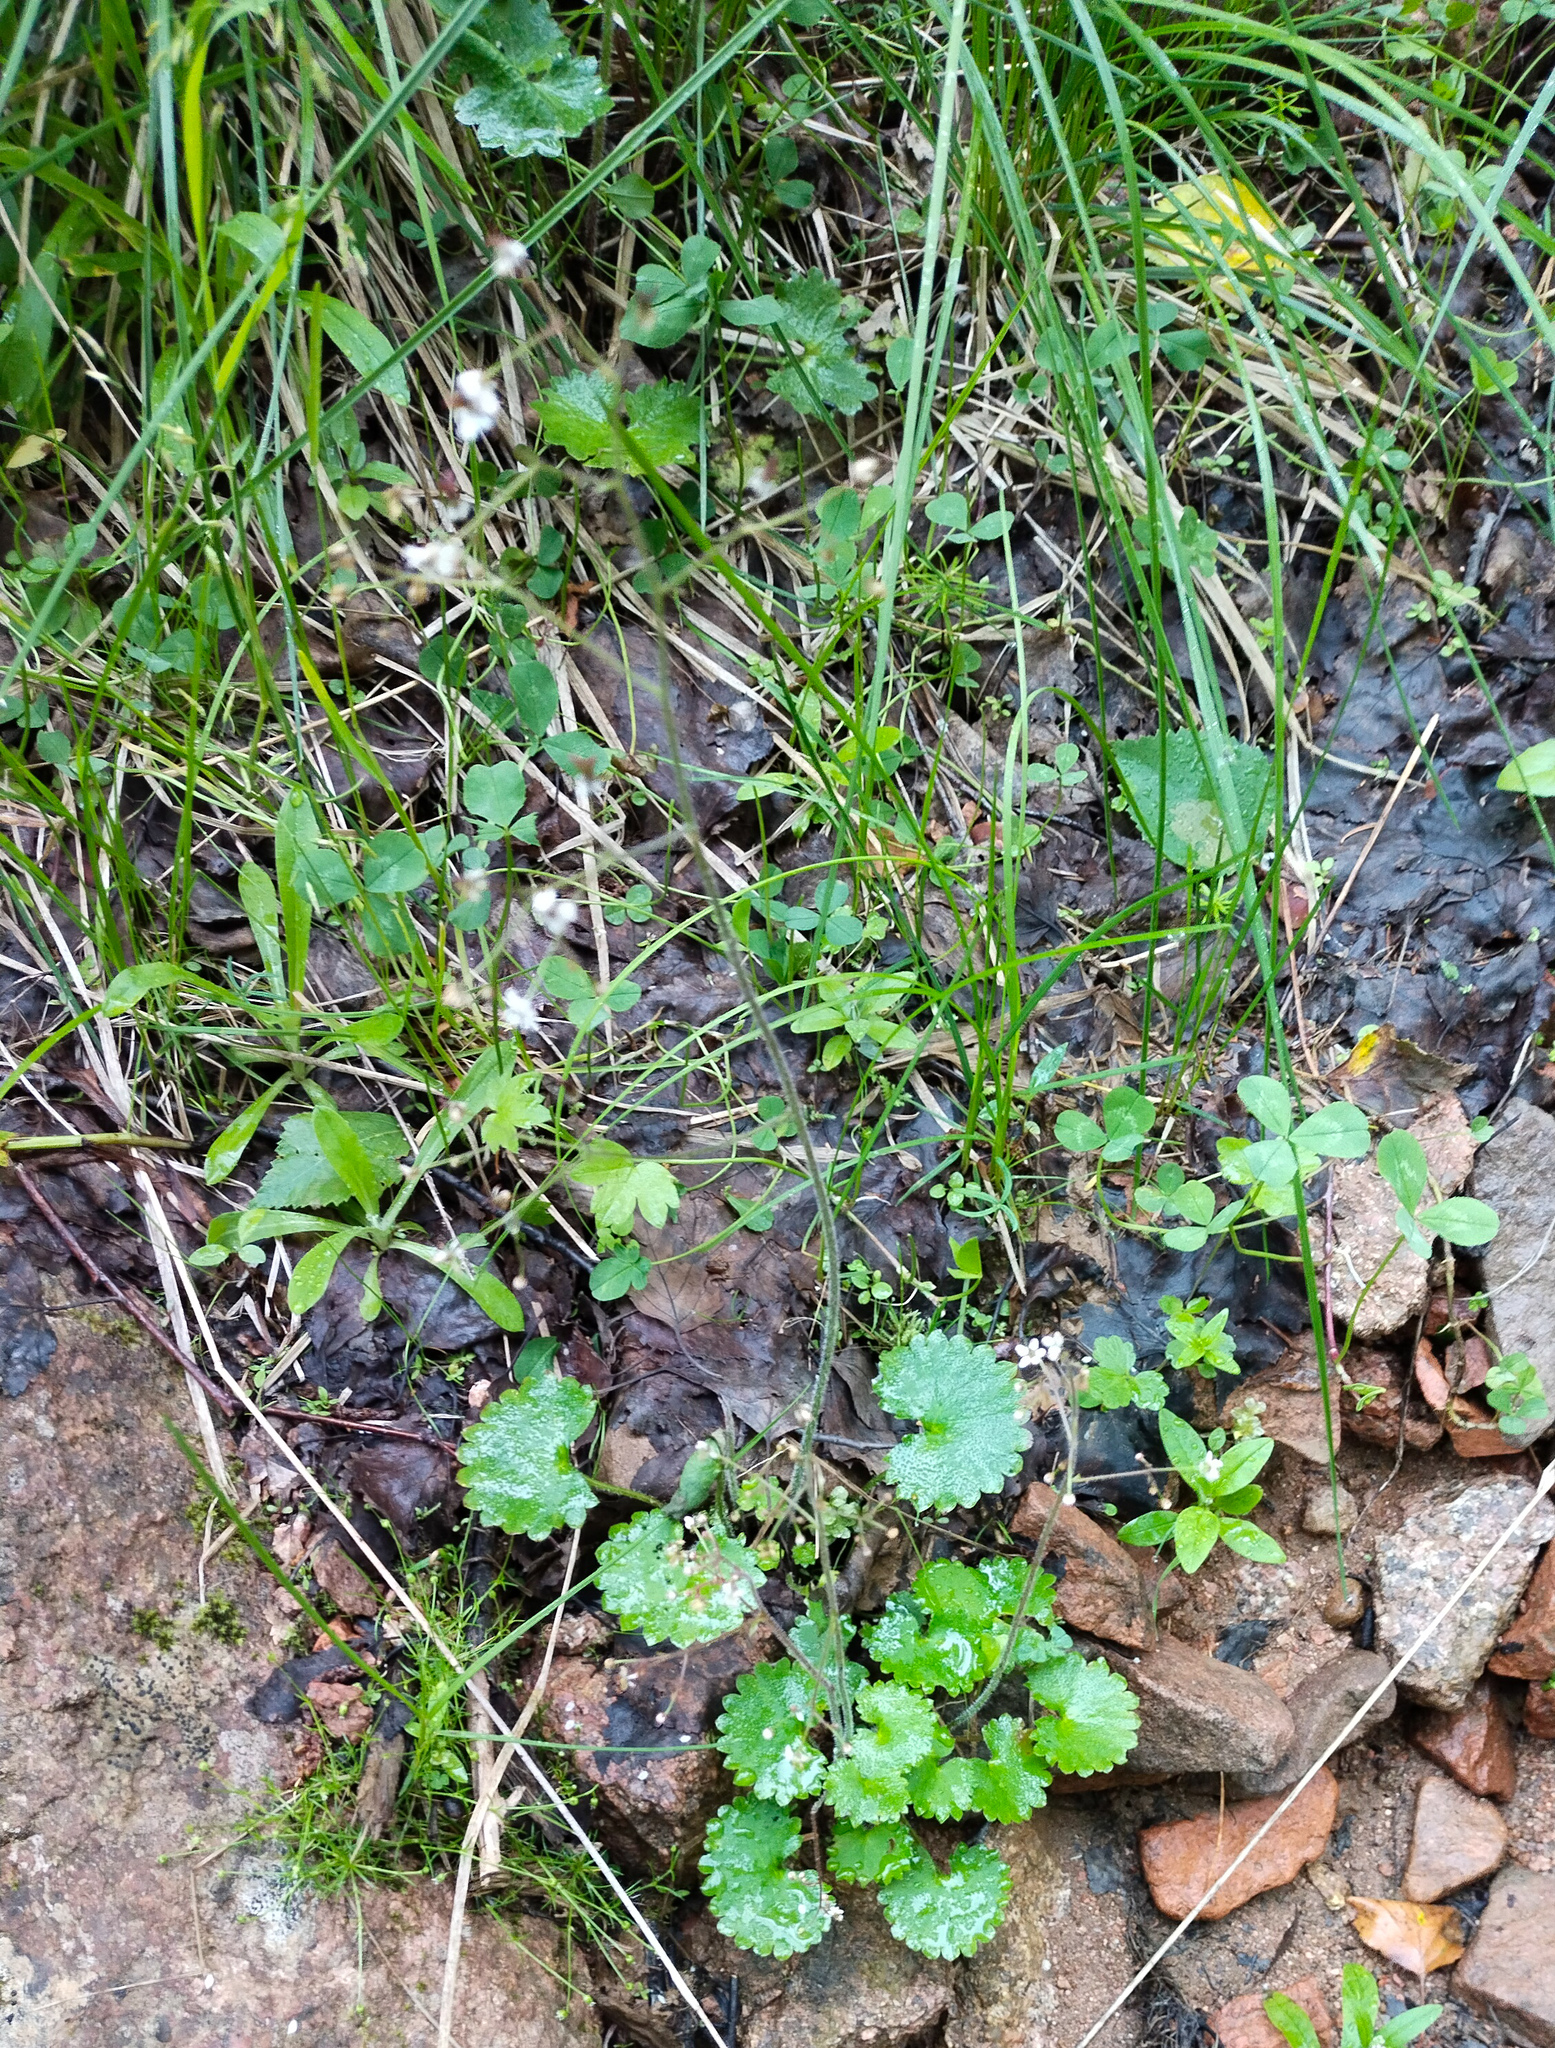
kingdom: Plantae
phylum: Tracheophyta
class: Magnoliopsida
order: Saxifragales
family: Saxifragaceae
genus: Micranthes
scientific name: Micranthes nelsoniana
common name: Nelson's saxifrage
